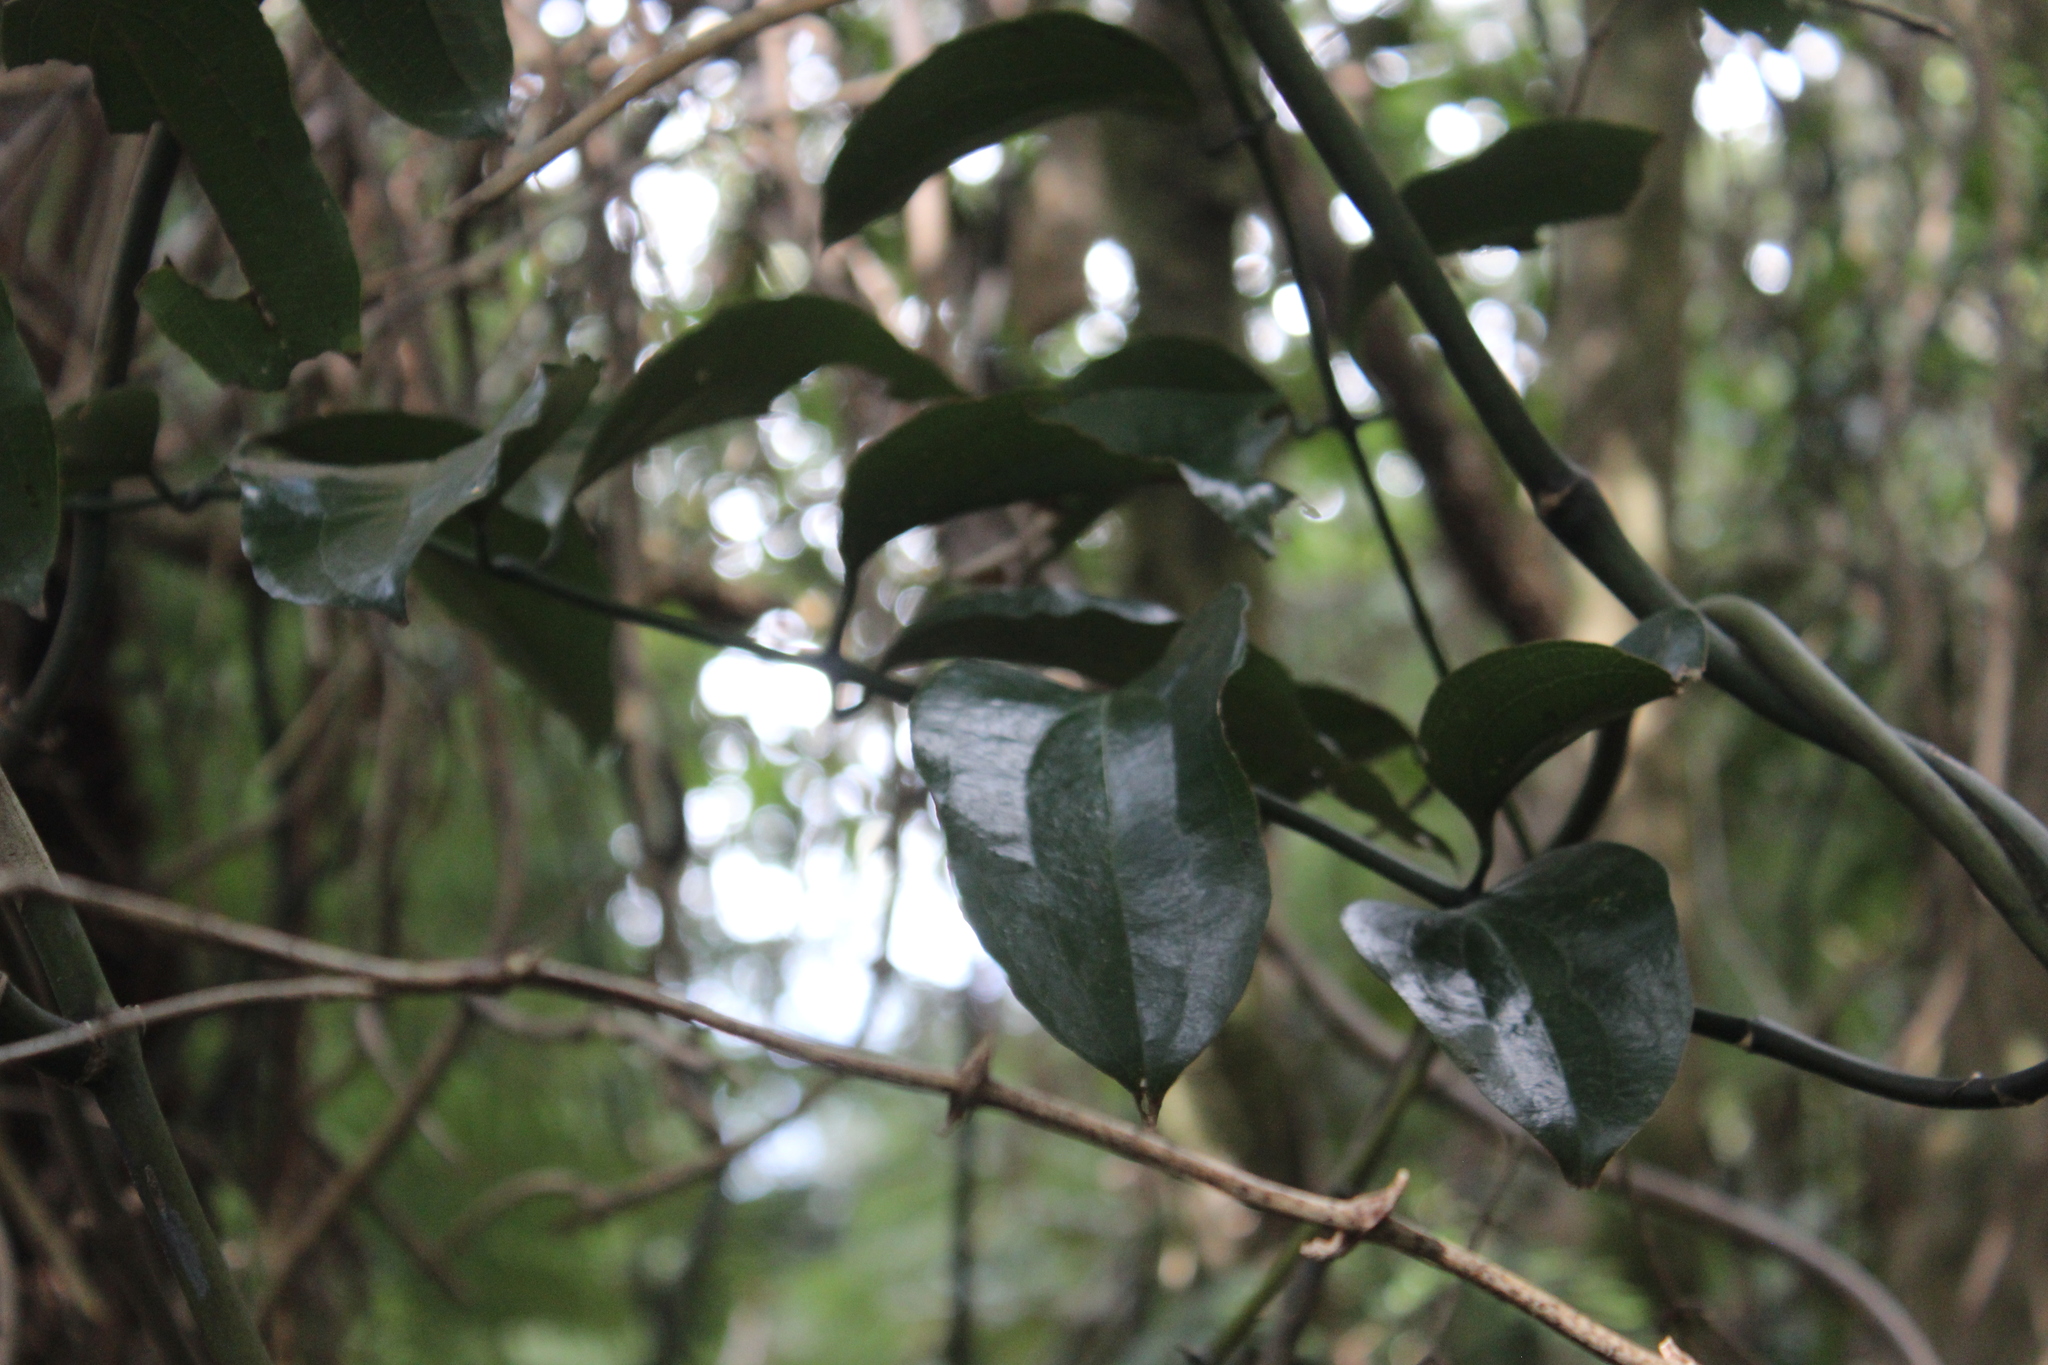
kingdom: Plantae
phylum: Tracheophyta
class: Liliopsida
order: Liliales
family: Ripogonaceae
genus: Ripogonum
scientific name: Ripogonum scandens
